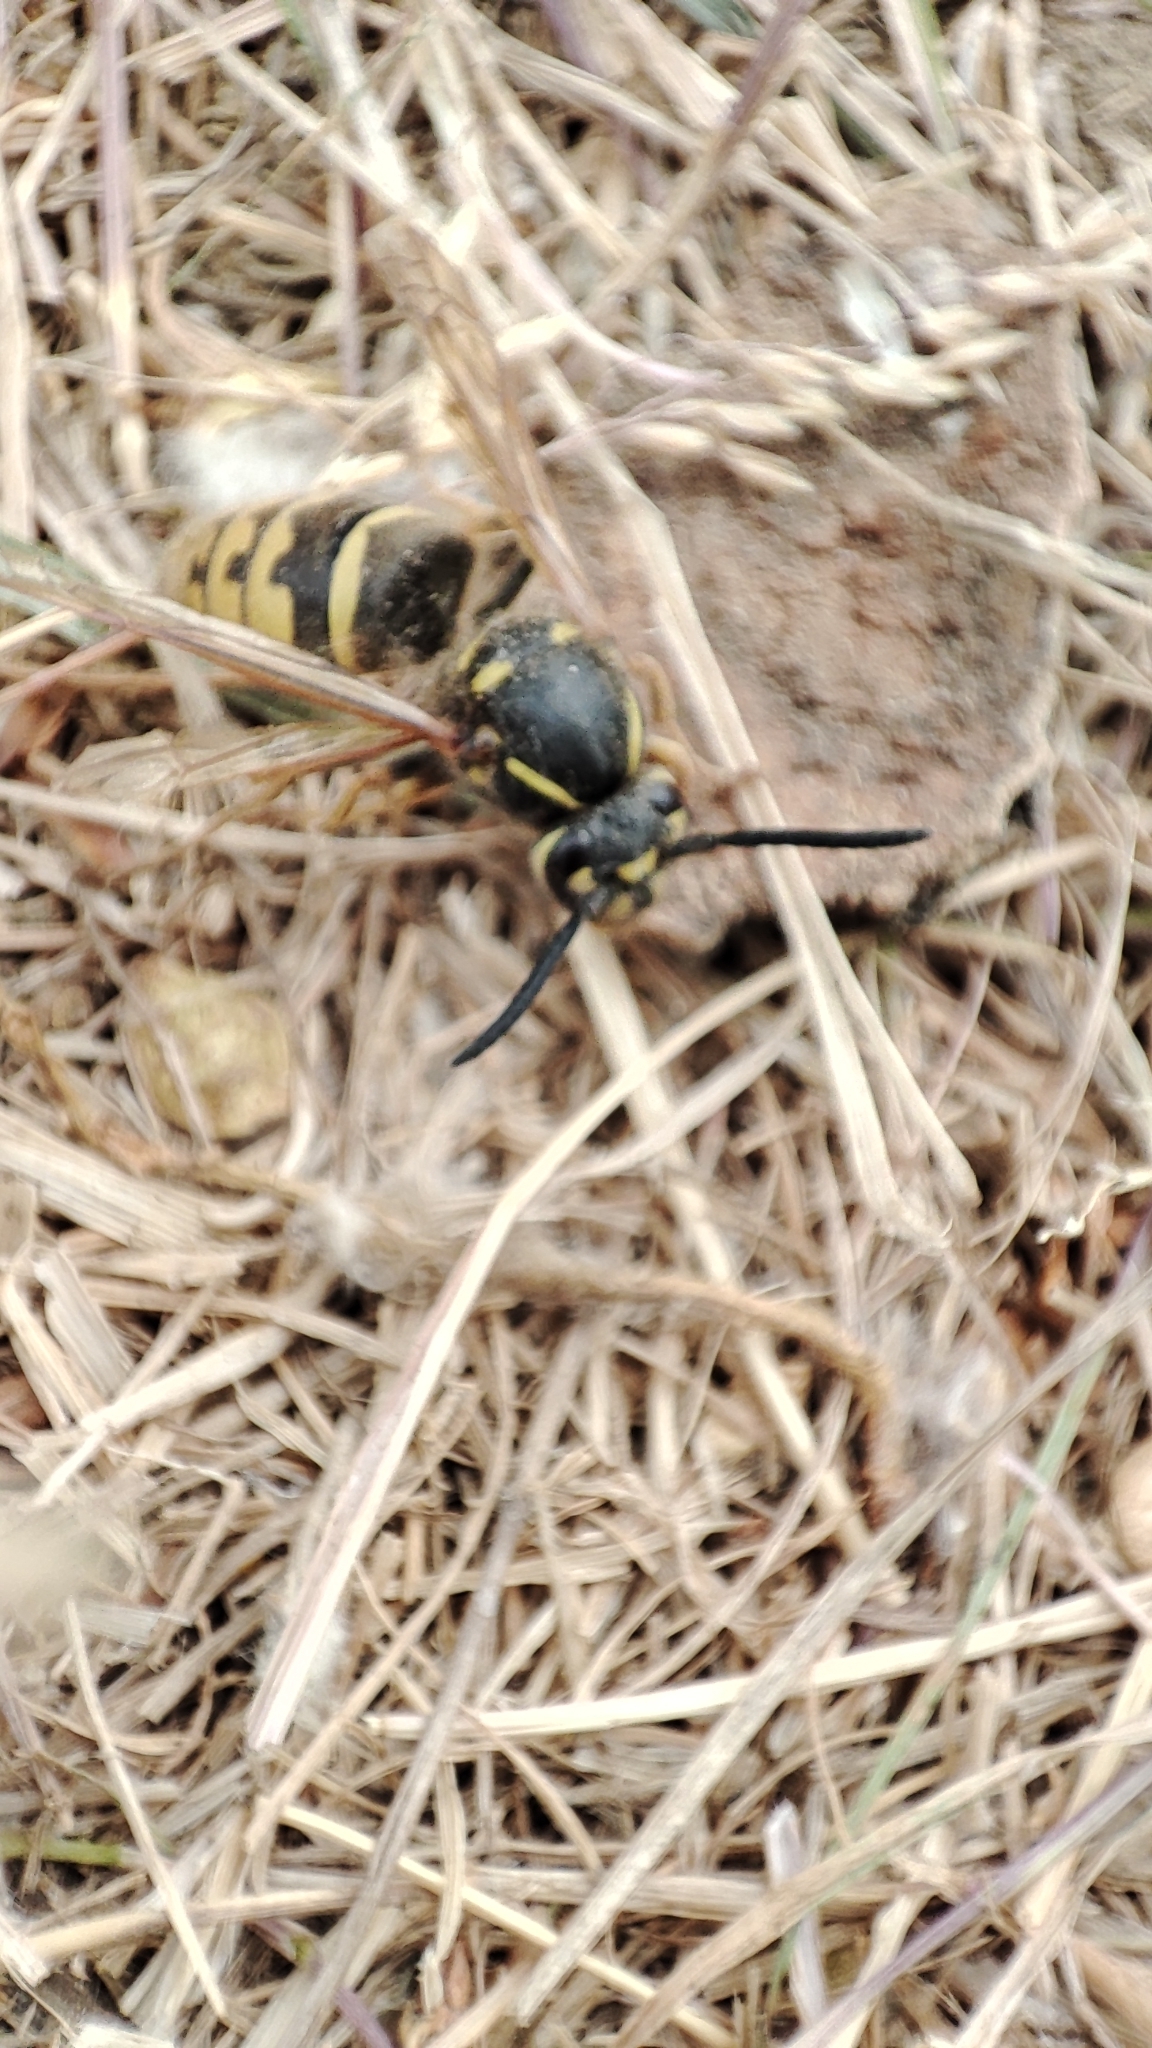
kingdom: Animalia
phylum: Arthropoda
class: Insecta
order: Hymenoptera
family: Vespidae
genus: Vespula
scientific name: Vespula vulgaris
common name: Common wasp
